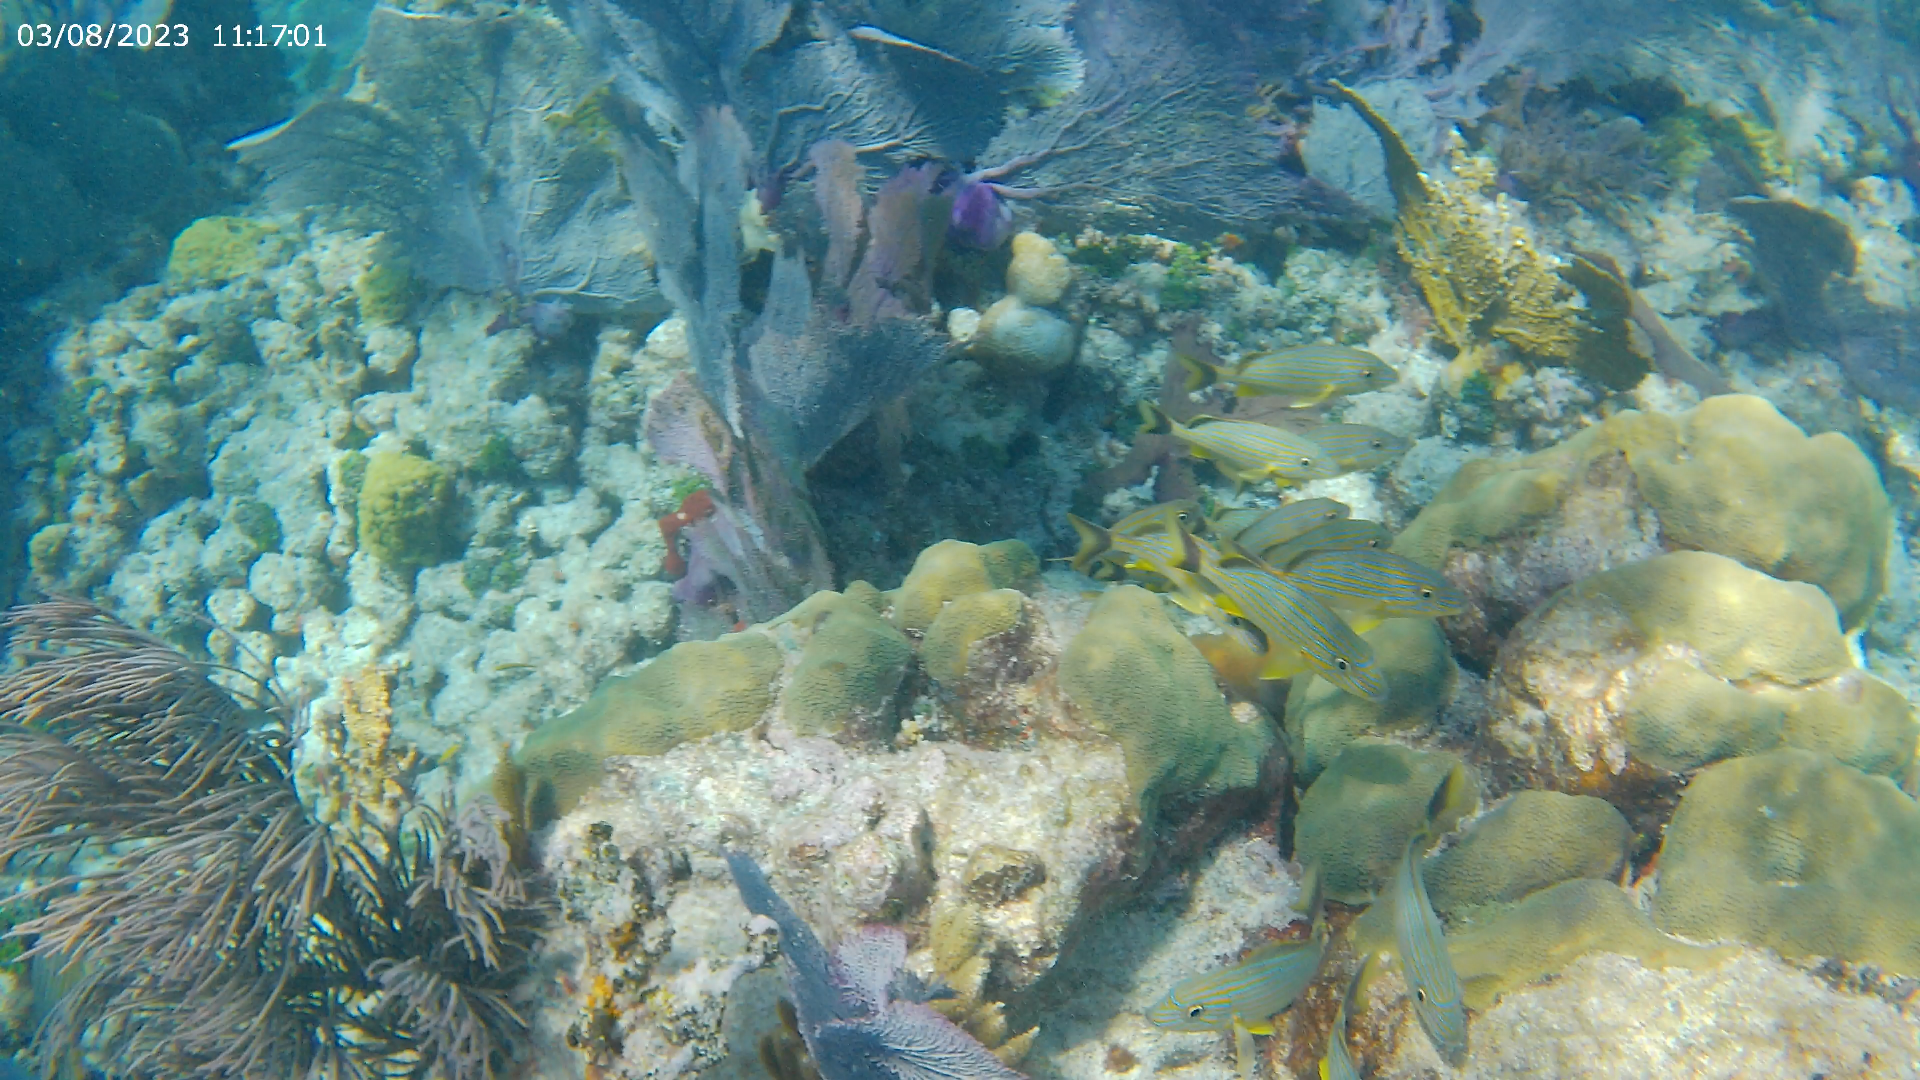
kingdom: Animalia
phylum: Chordata
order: Perciformes
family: Haemulidae
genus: Haemulon
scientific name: Haemulon sciurus
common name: Bluestriped grunt
